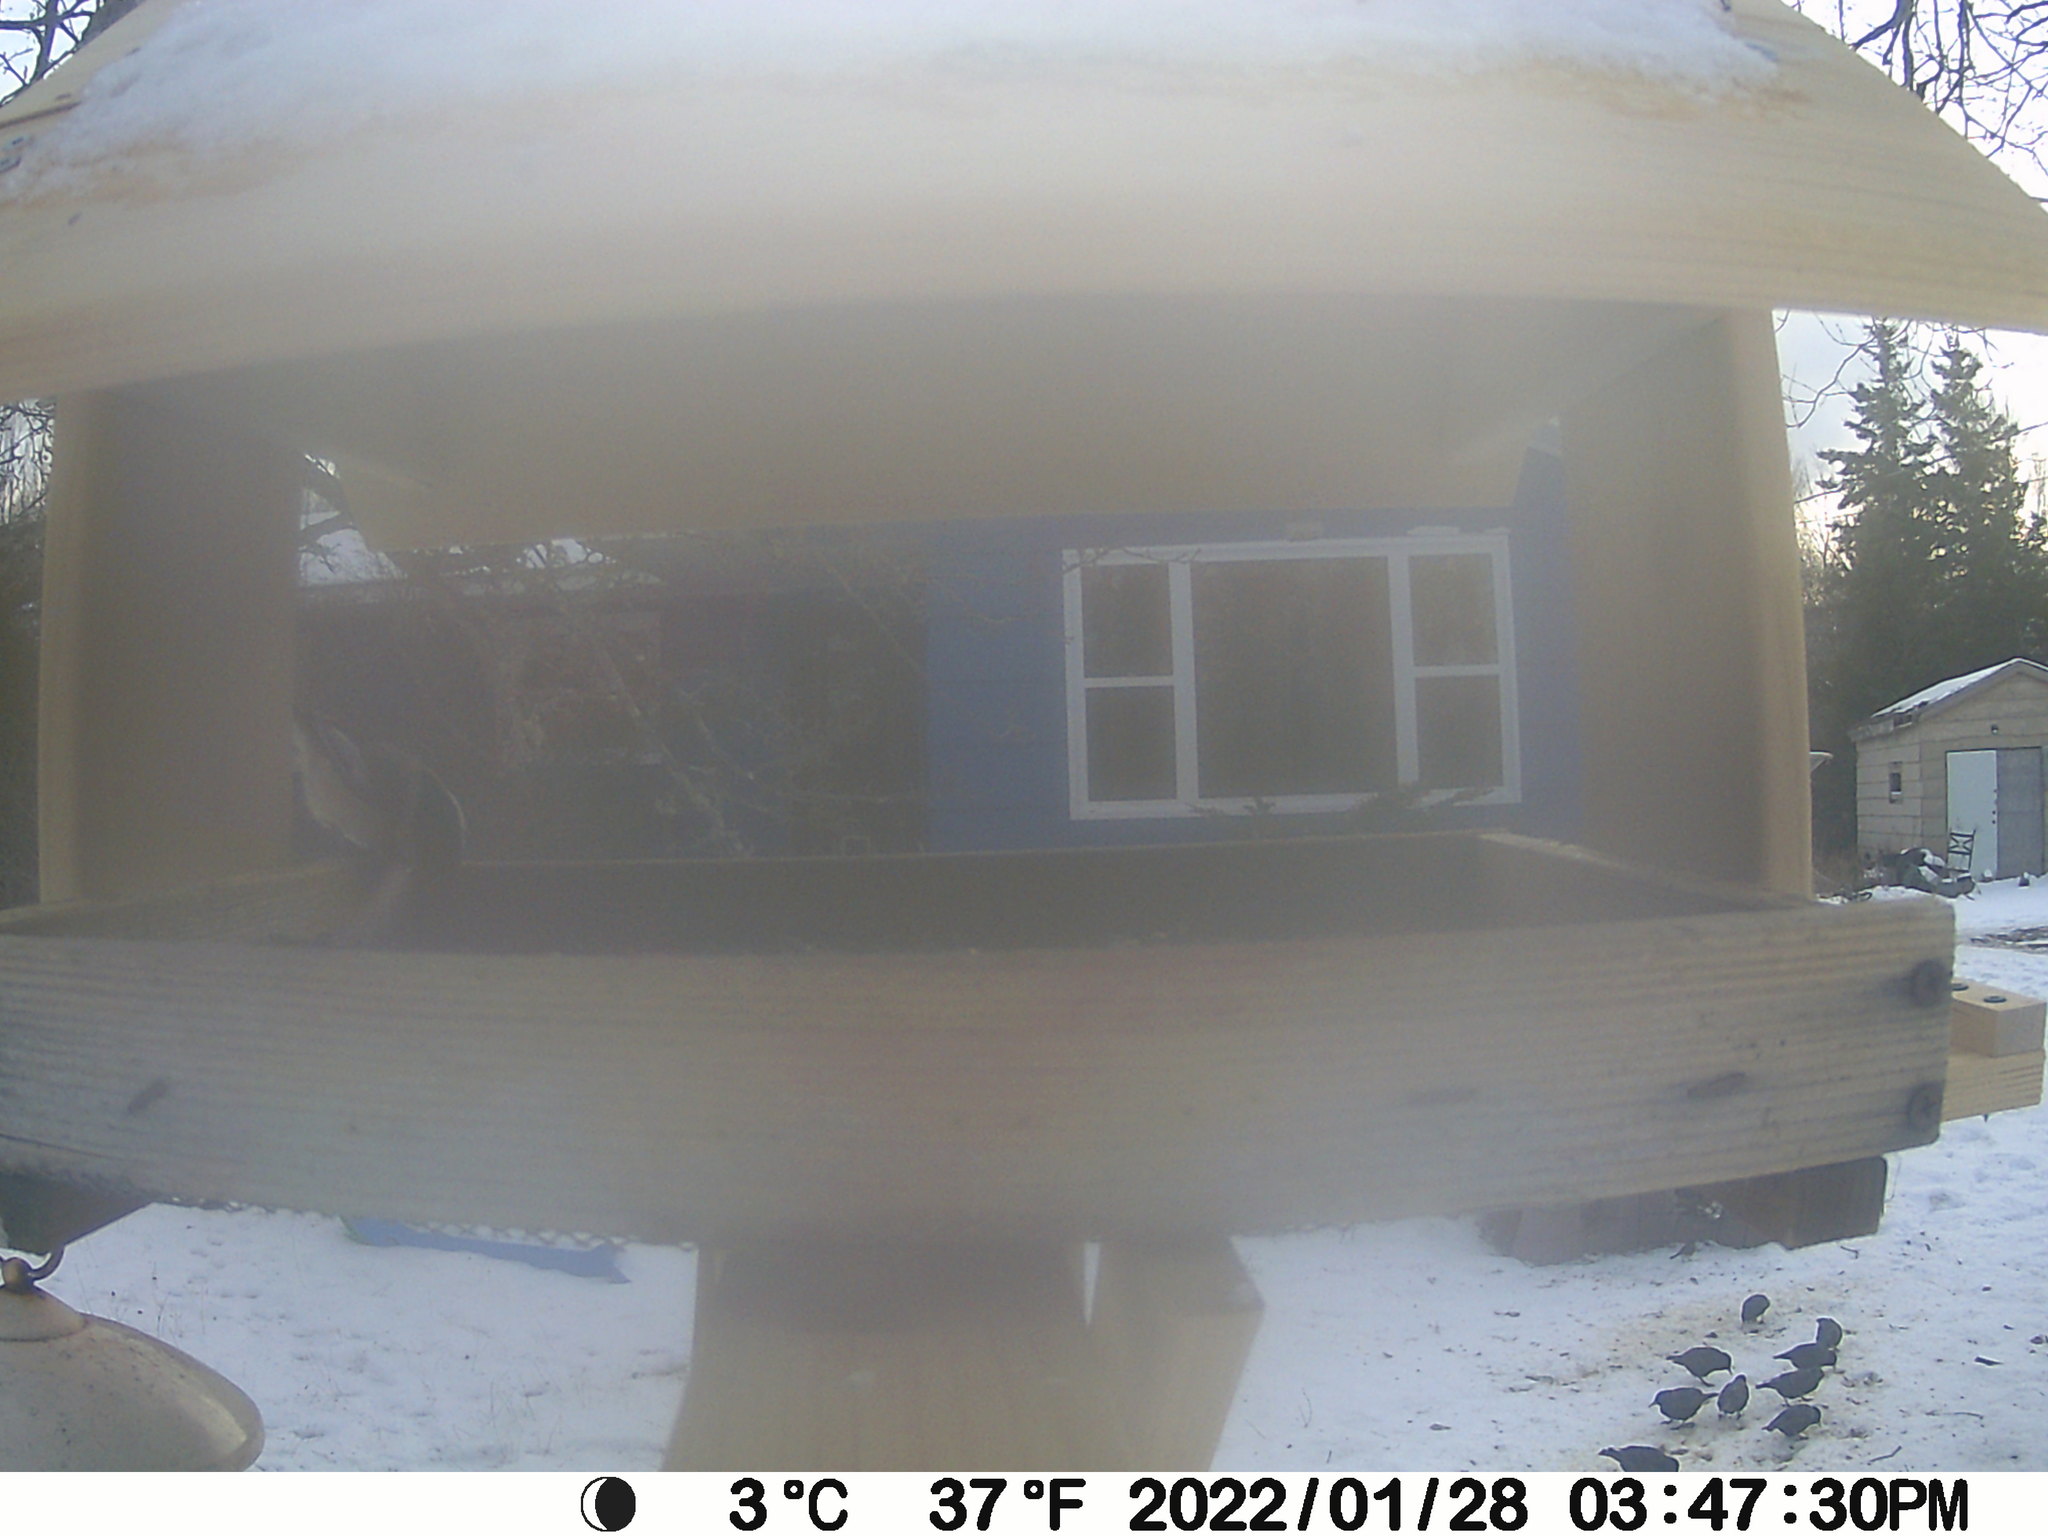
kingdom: Animalia
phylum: Chordata
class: Aves
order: Passeriformes
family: Sturnidae
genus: Sturnus
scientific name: Sturnus vulgaris
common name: Common starling
